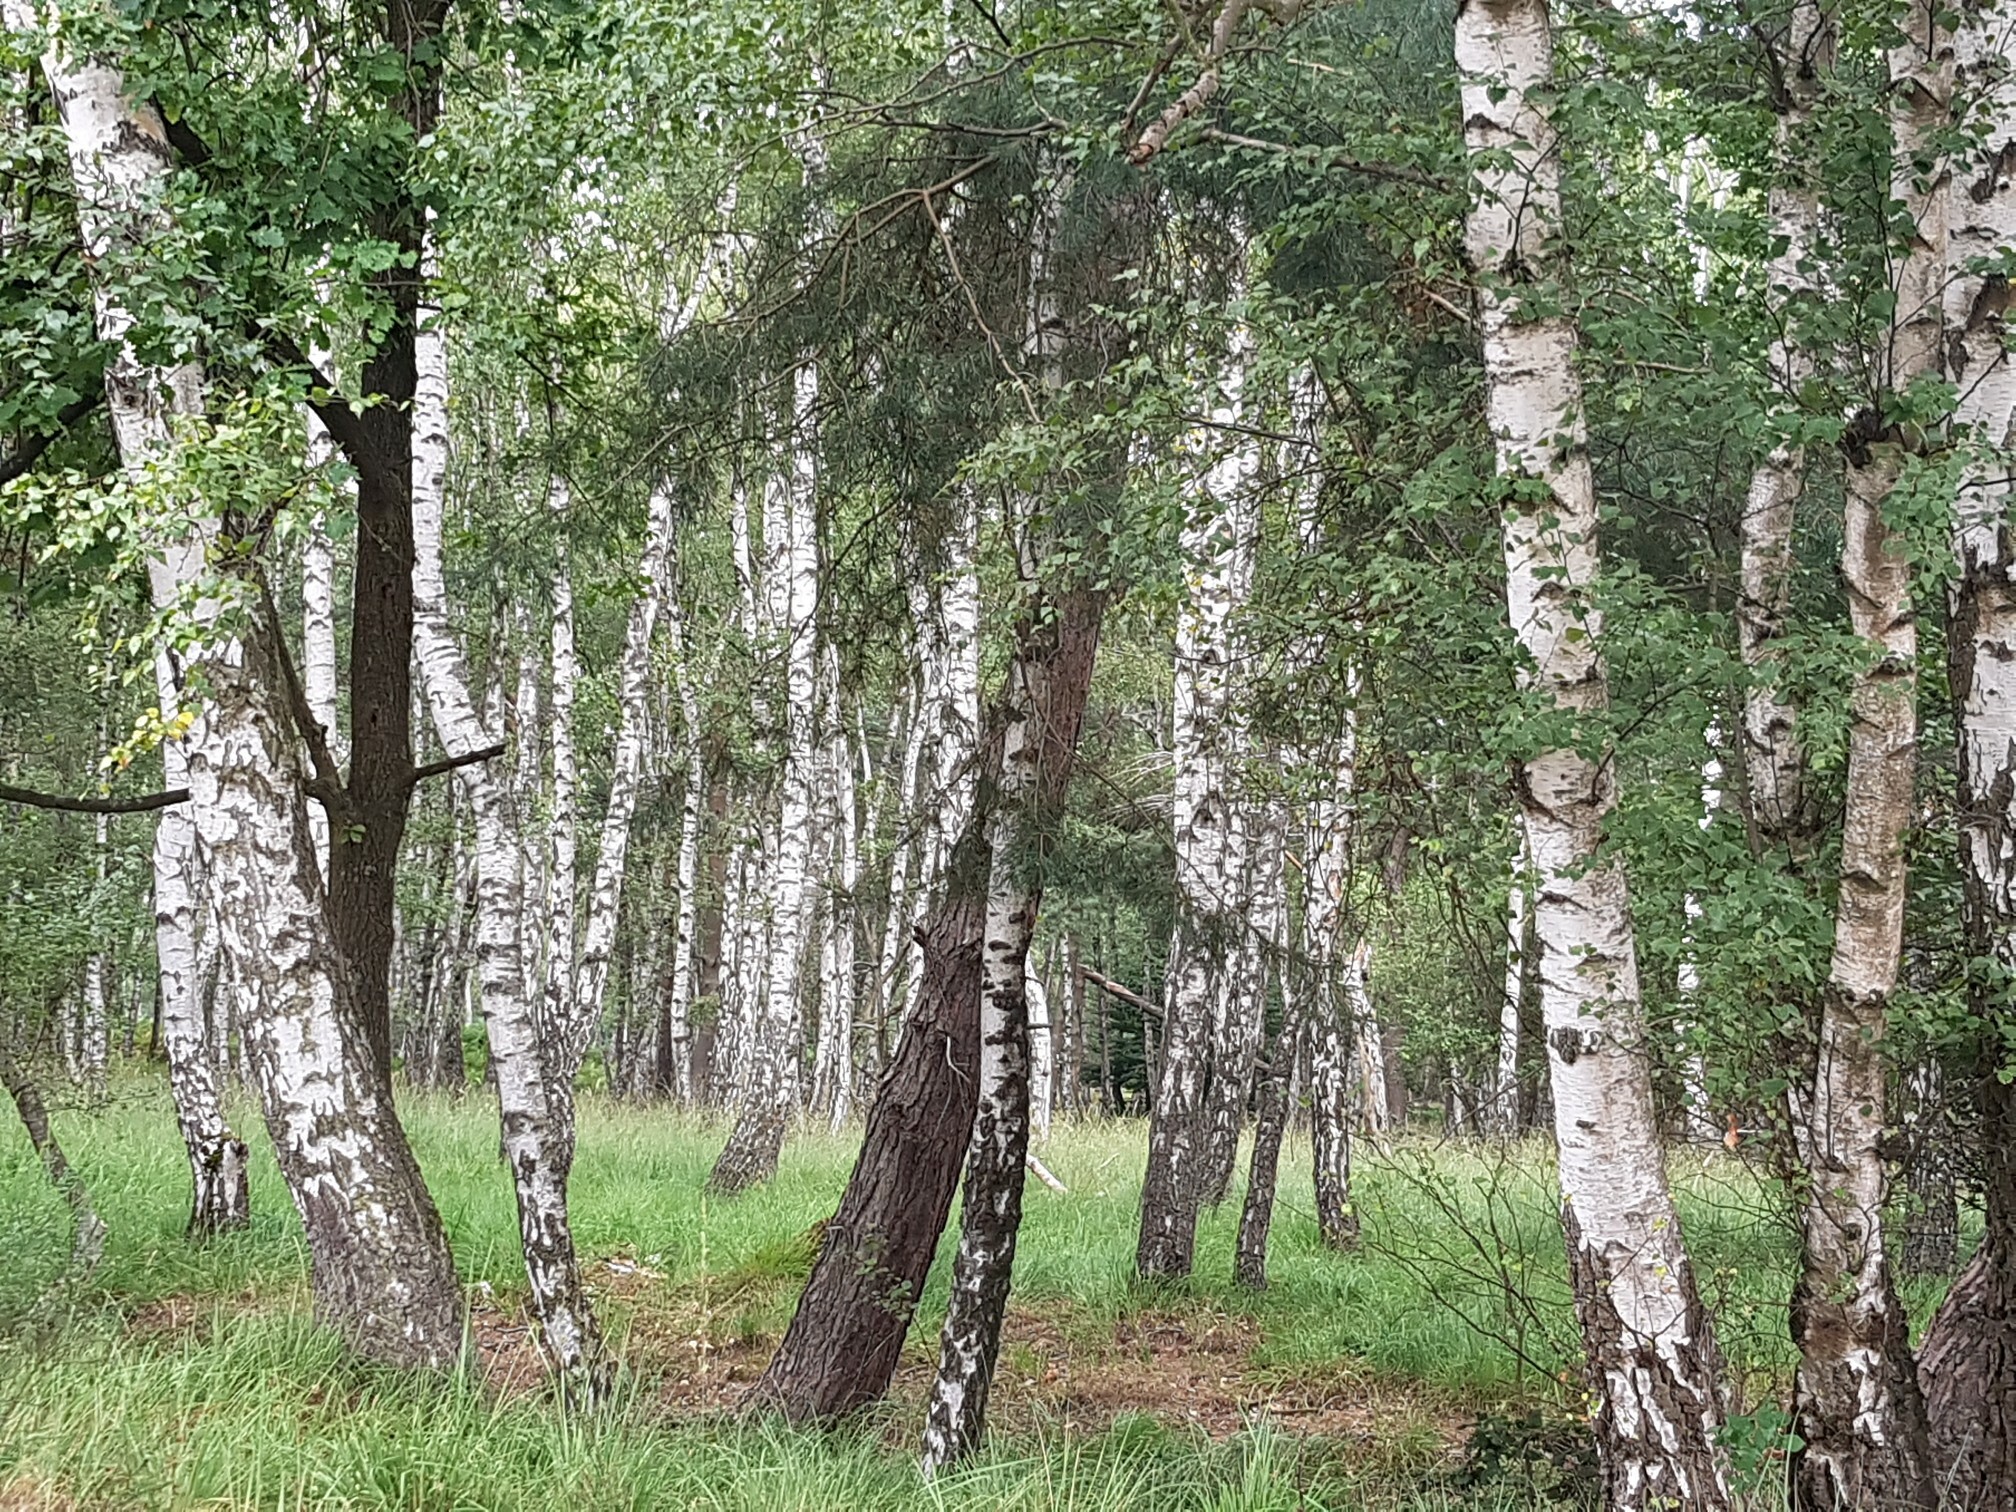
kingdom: Plantae
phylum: Tracheophyta
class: Magnoliopsida
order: Fagales
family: Betulaceae
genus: Betula
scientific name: Betula pendula
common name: Silver birch
